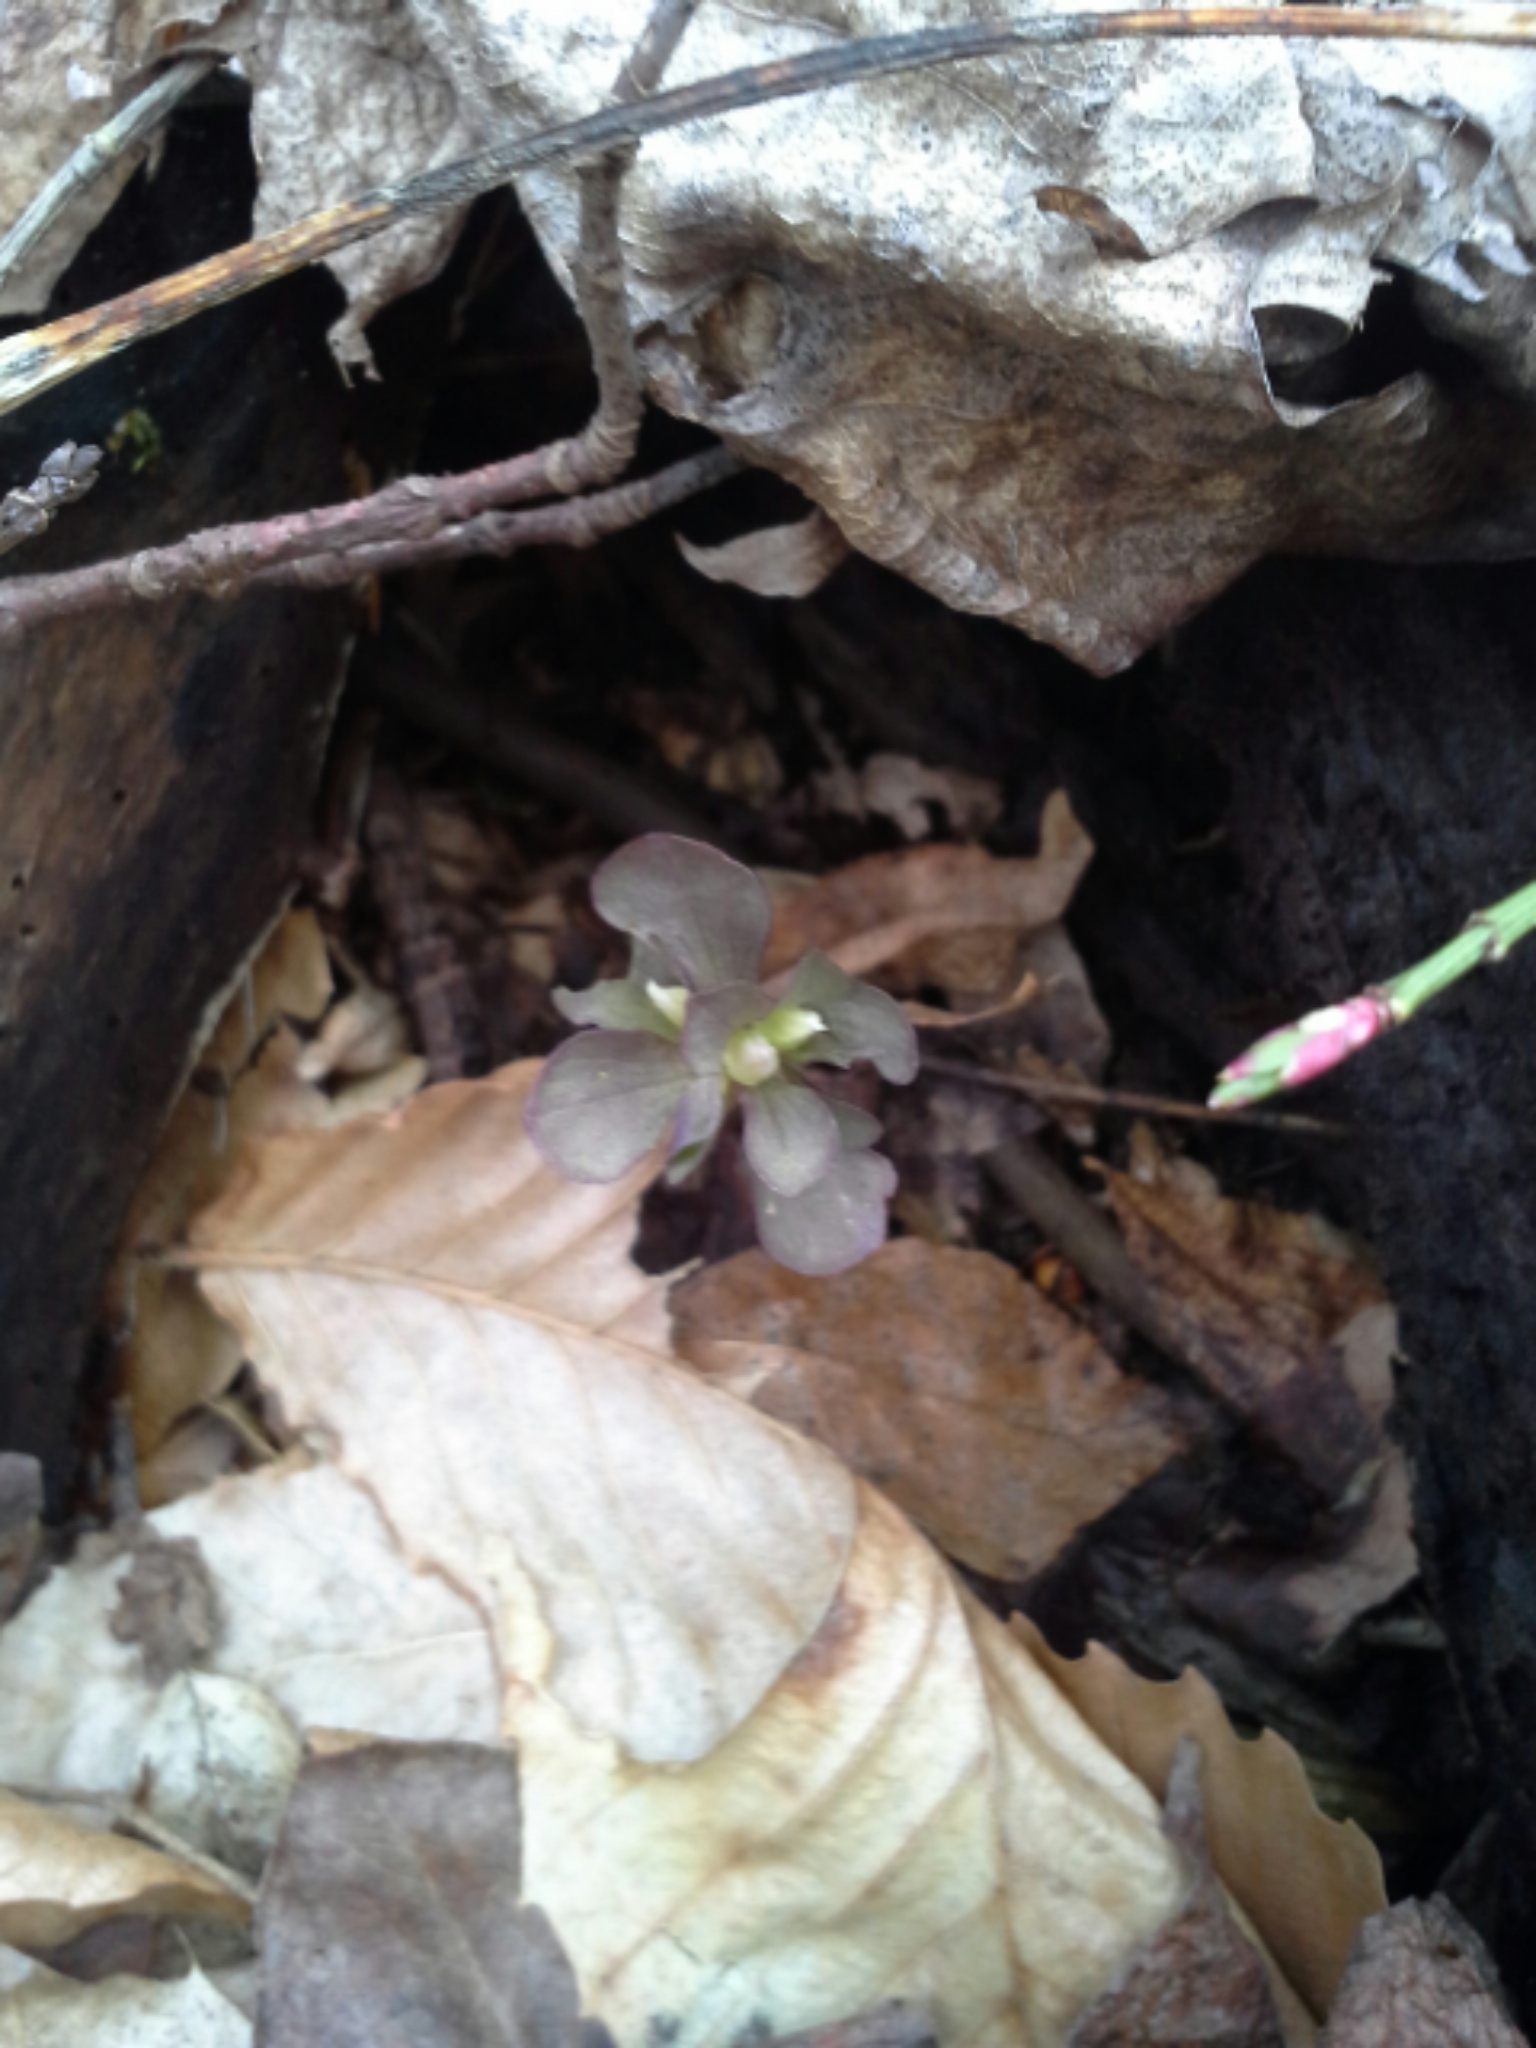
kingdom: Plantae
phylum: Tracheophyta
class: Magnoliopsida
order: Gentianales
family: Gentianaceae
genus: Obolaria
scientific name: Obolaria virginica
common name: Pennywort
